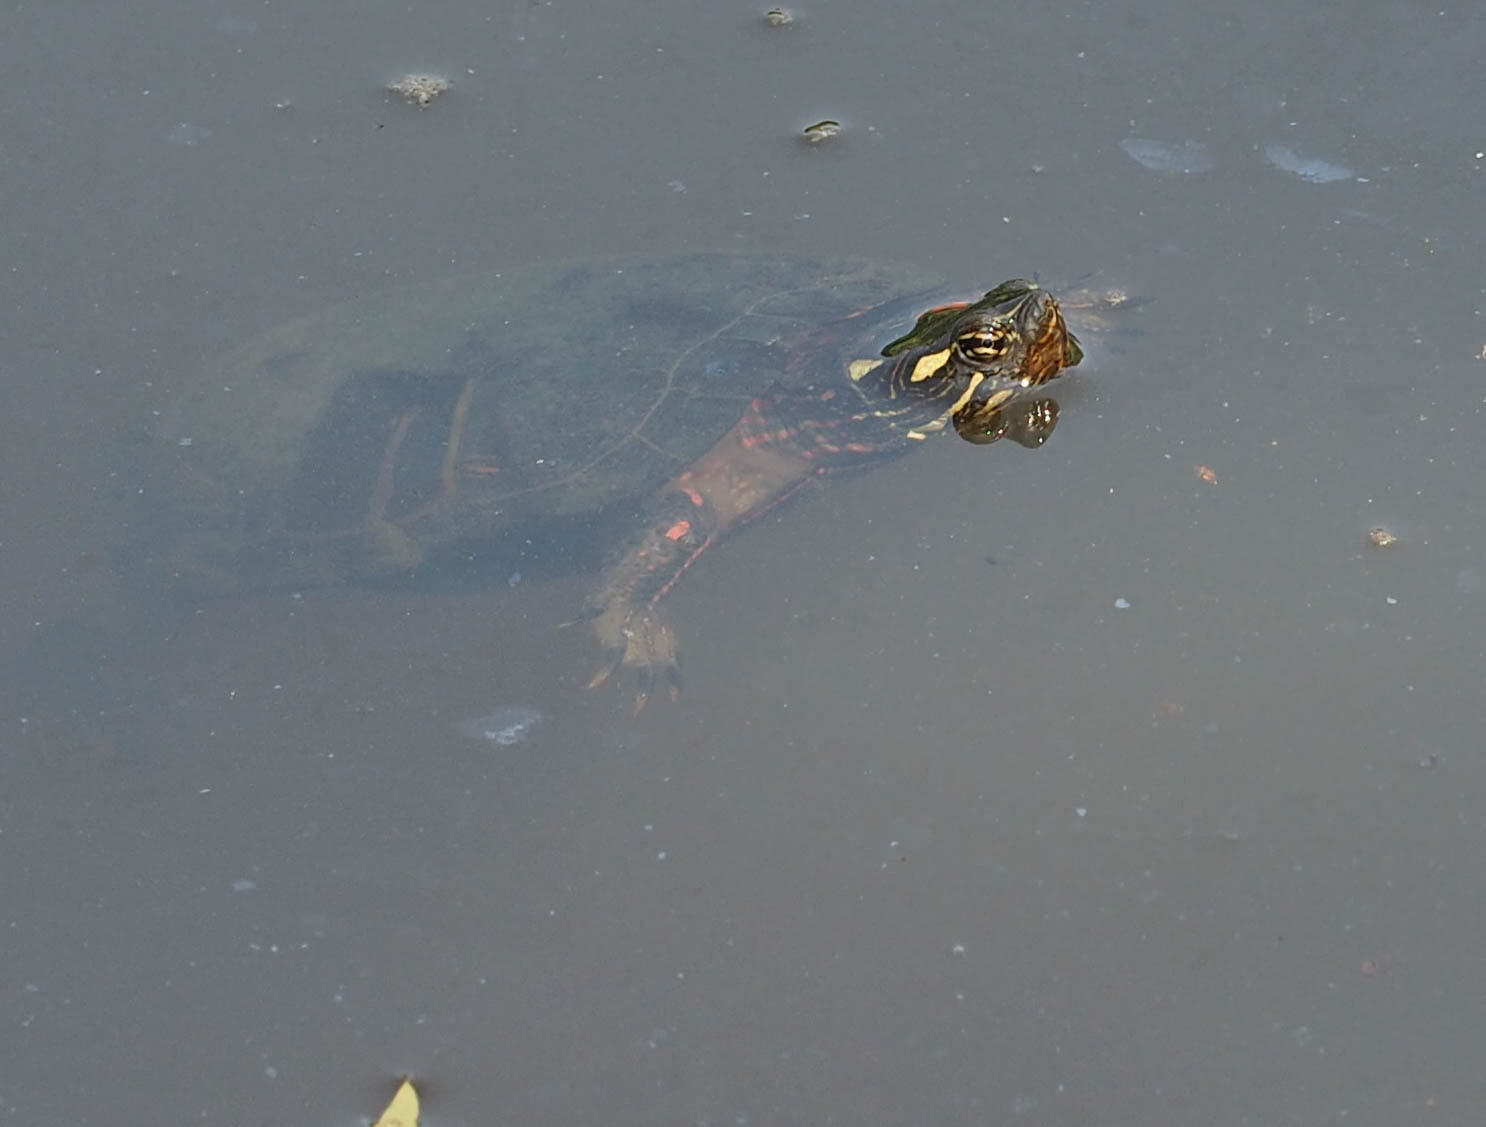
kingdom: Animalia
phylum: Chordata
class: Testudines
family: Emydidae
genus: Chrysemys
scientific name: Chrysemys picta
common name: Painted turtle
